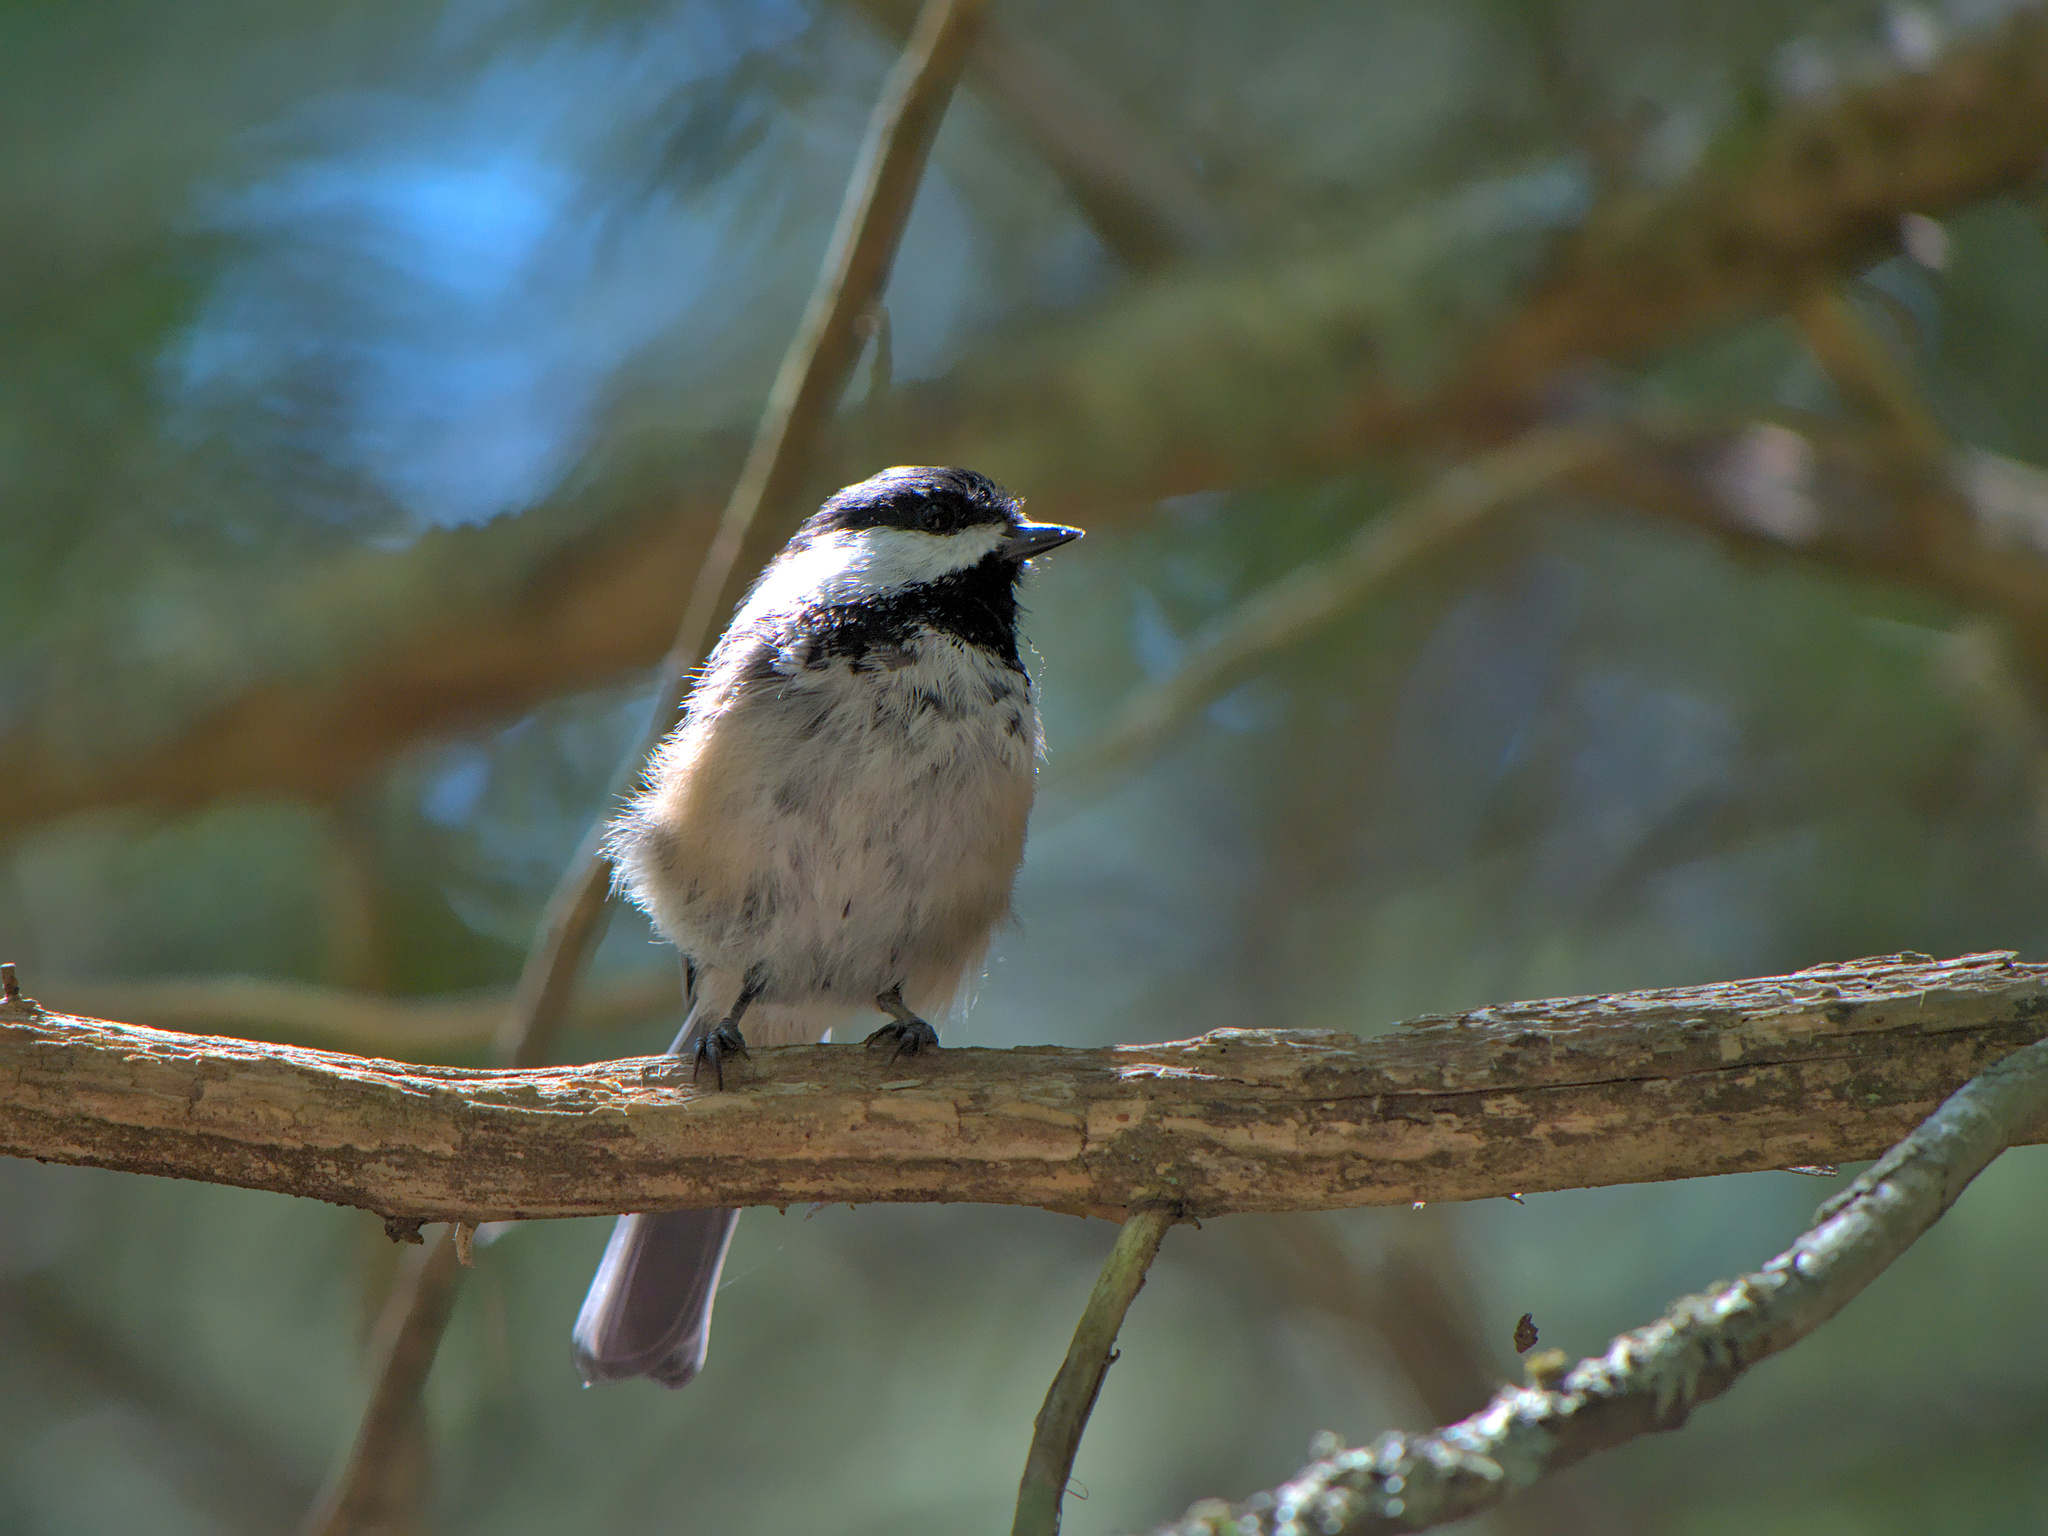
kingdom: Animalia
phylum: Chordata
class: Aves
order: Passeriformes
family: Paridae
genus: Poecile
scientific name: Poecile atricapillus
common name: Black-capped chickadee
